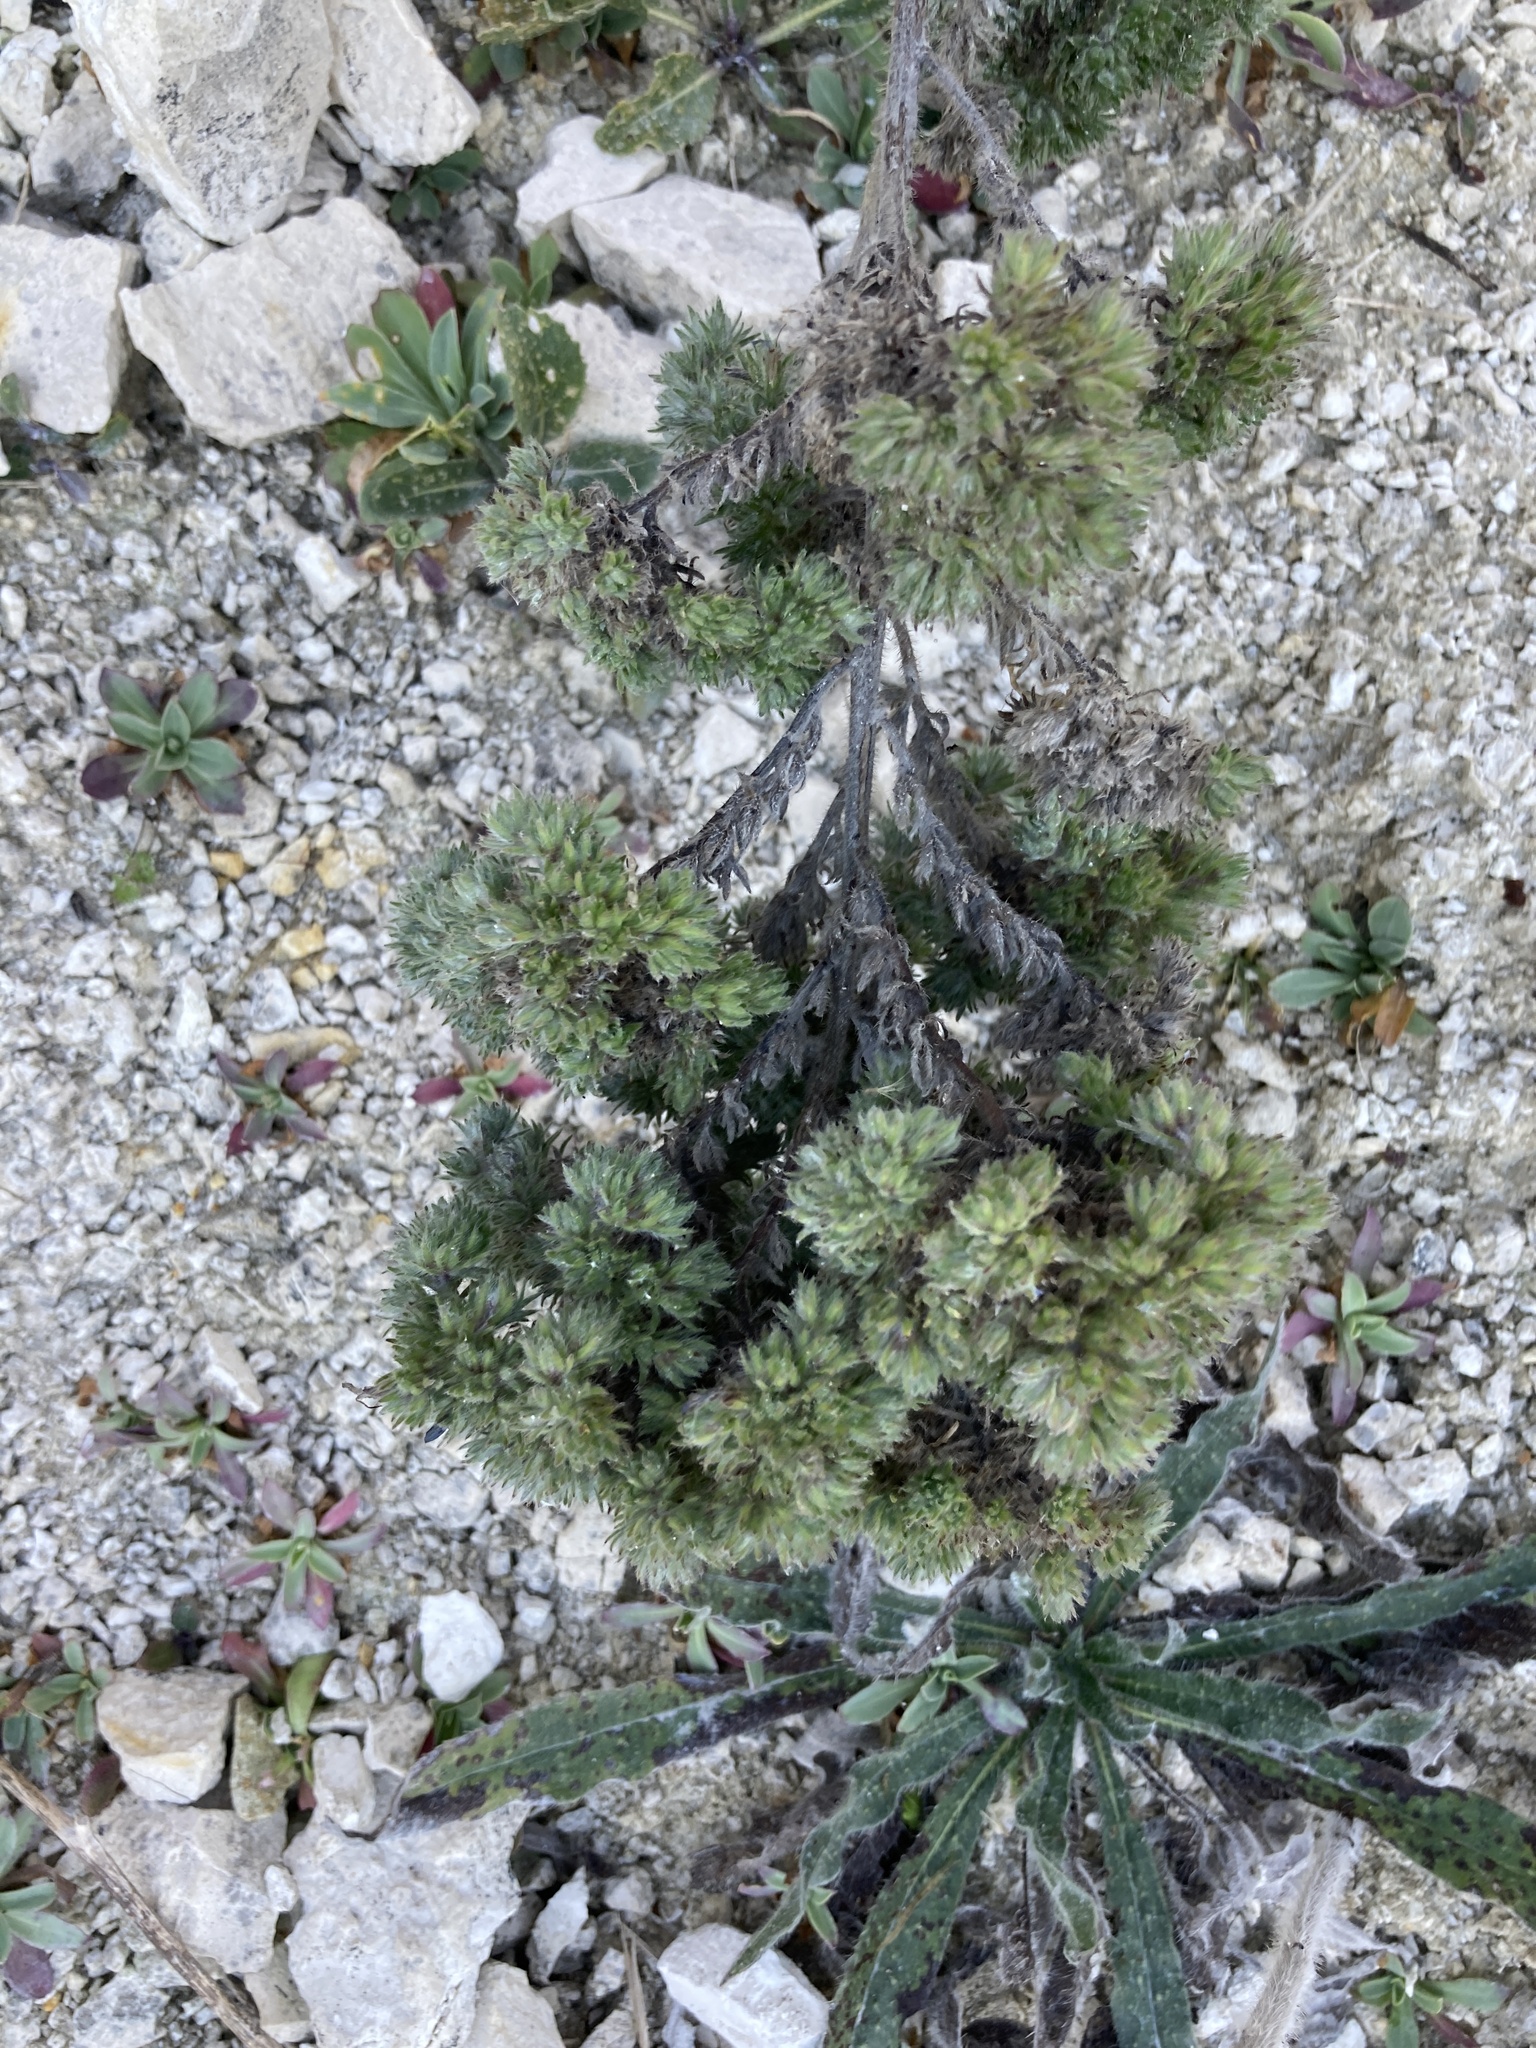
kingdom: Plantae
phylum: Tracheophyta
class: Magnoliopsida
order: Boraginales
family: Boraginaceae
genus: Echium
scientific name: Echium vulgare
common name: Common viper's bugloss
